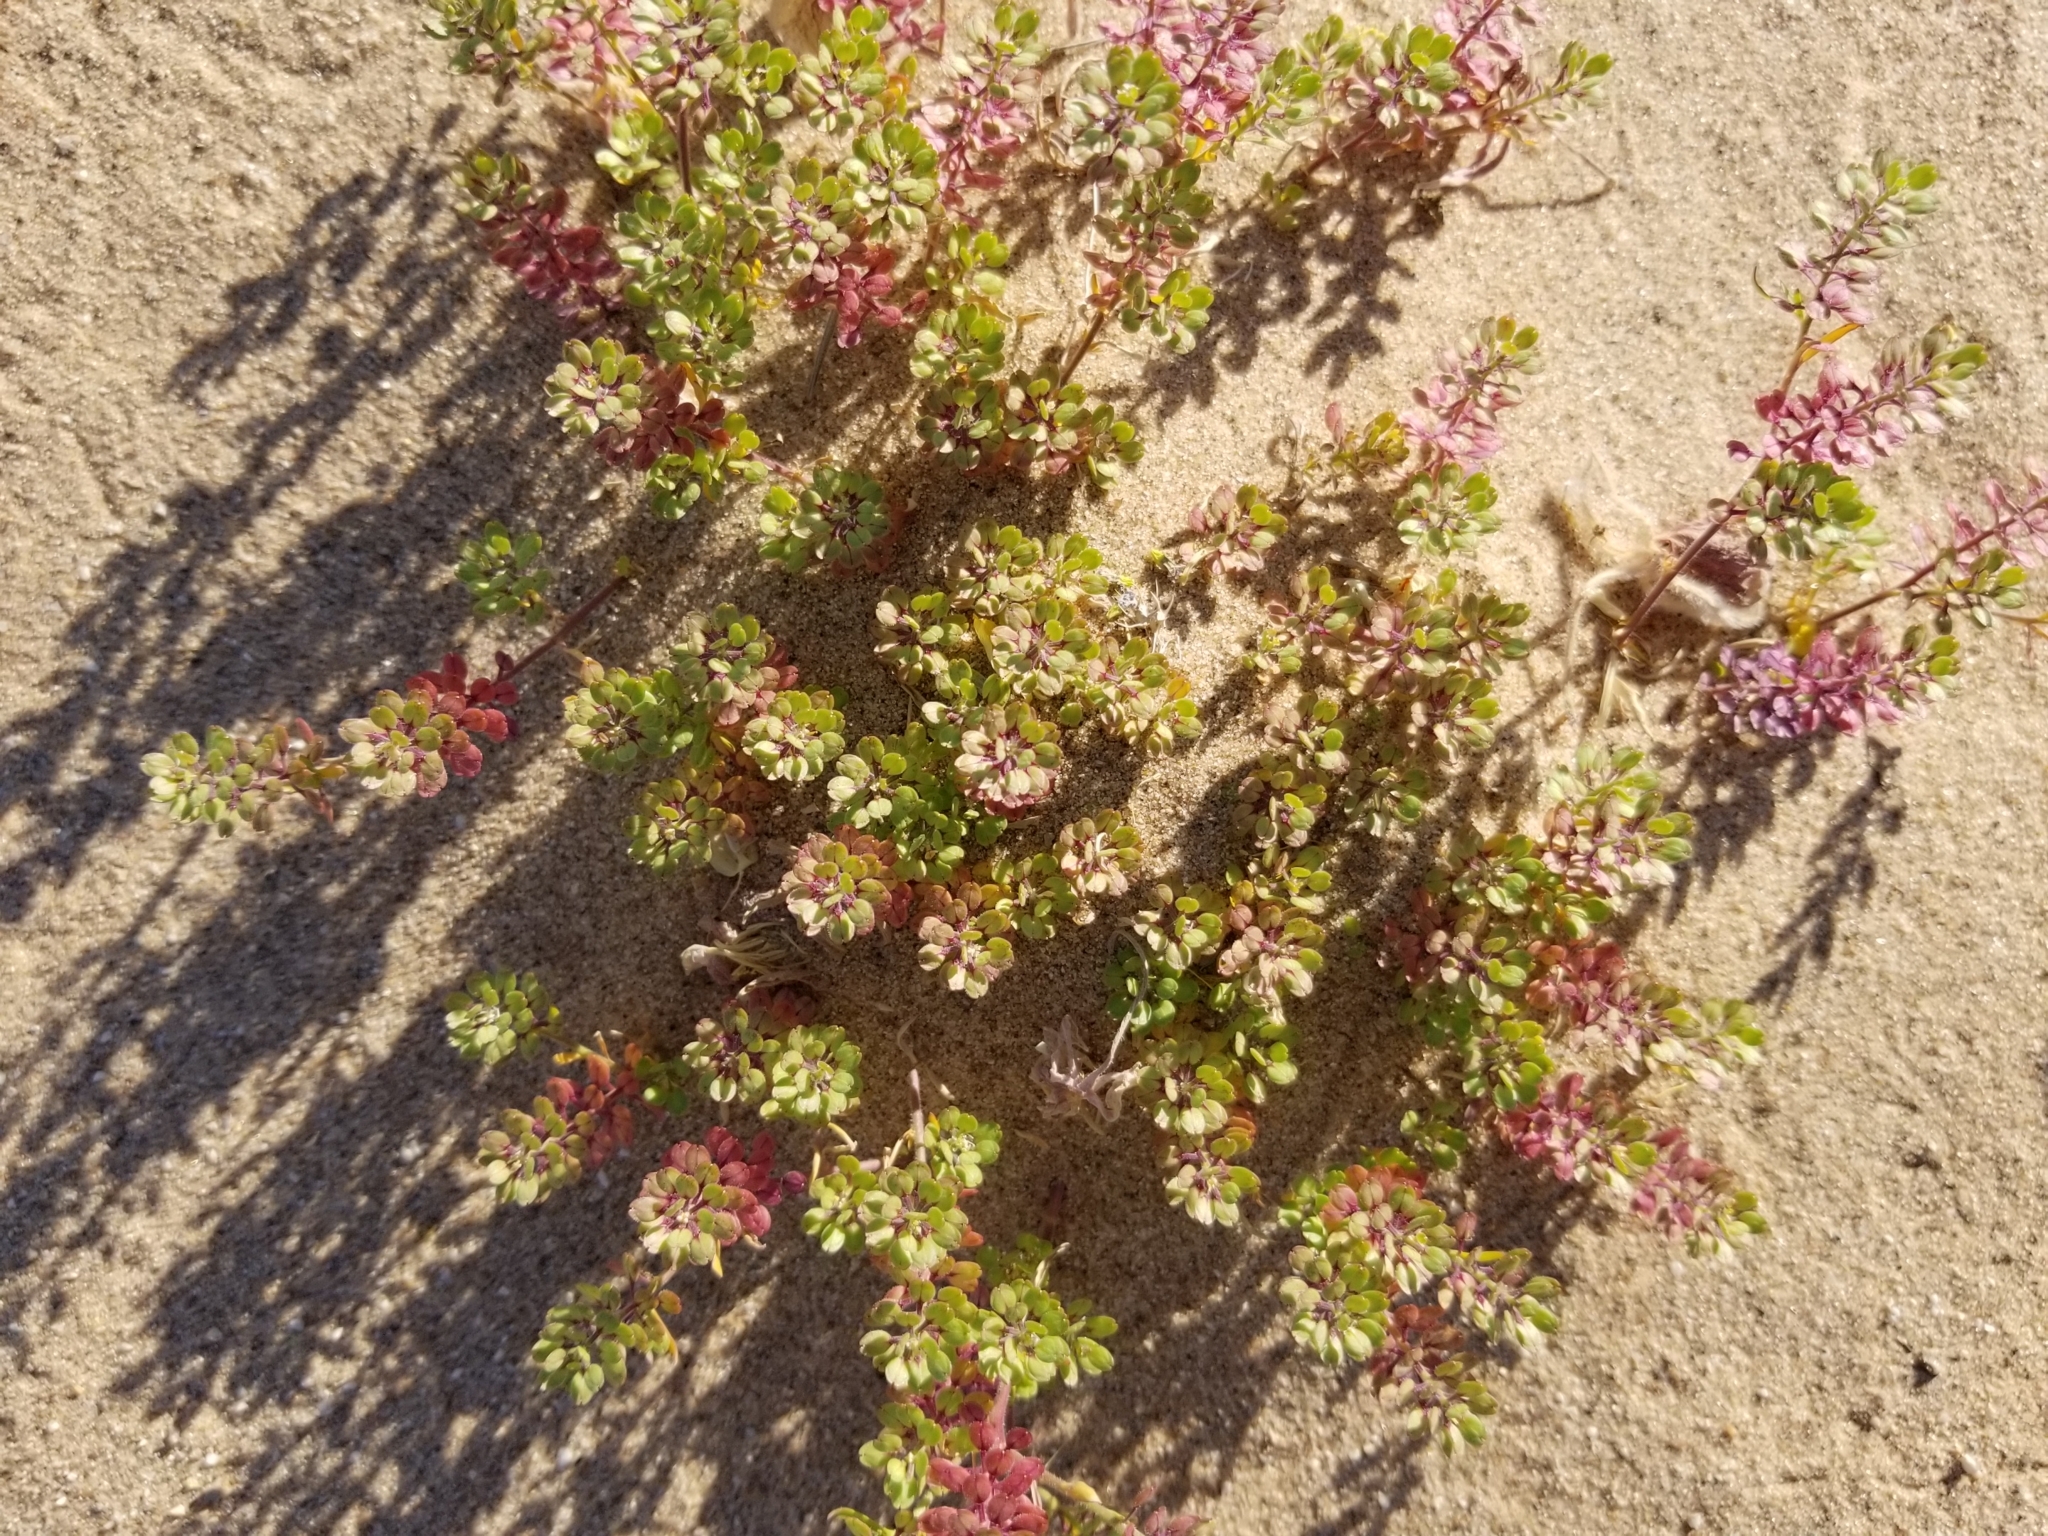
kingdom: Plantae
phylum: Tracheophyta
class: Magnoliopsida
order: Brassicales
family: Brassicaceae
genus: Lepidium
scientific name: Lepidium lasiocarpum
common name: Hairy-pod pepperwort
